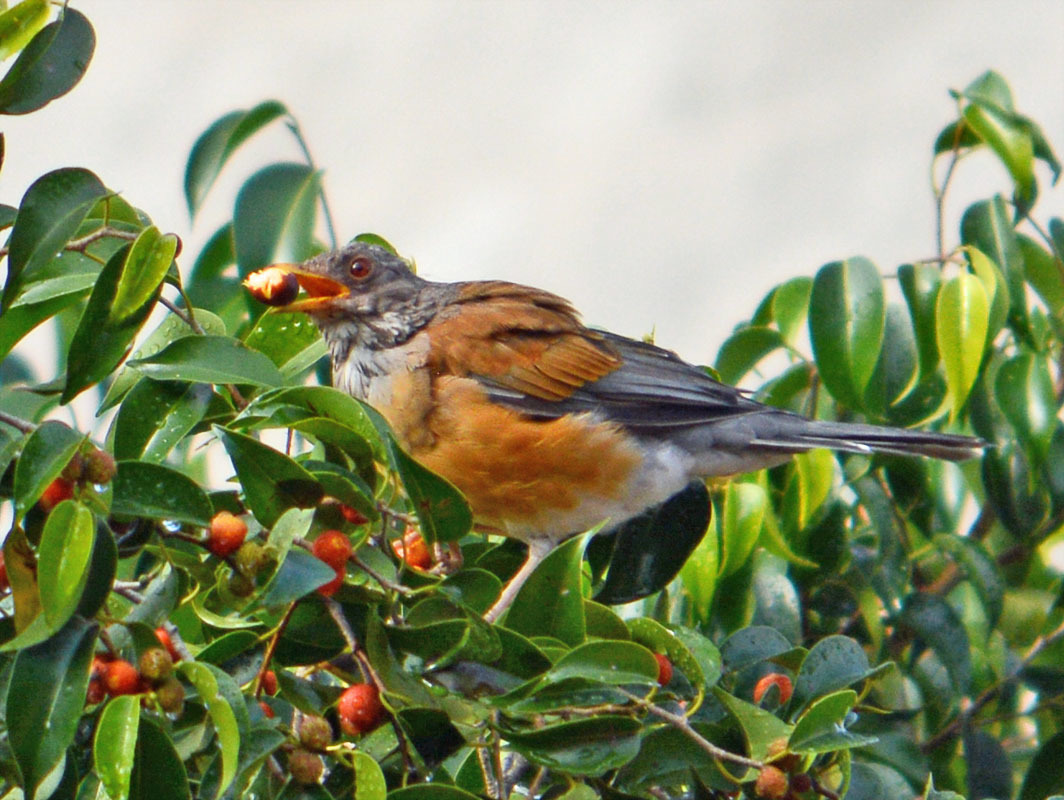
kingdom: Animalia
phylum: Chordata
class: Aves
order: Passeriformes
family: Turdidae
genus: Turdus
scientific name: Turdus rufopalliatus
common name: Rufous-backed robin
